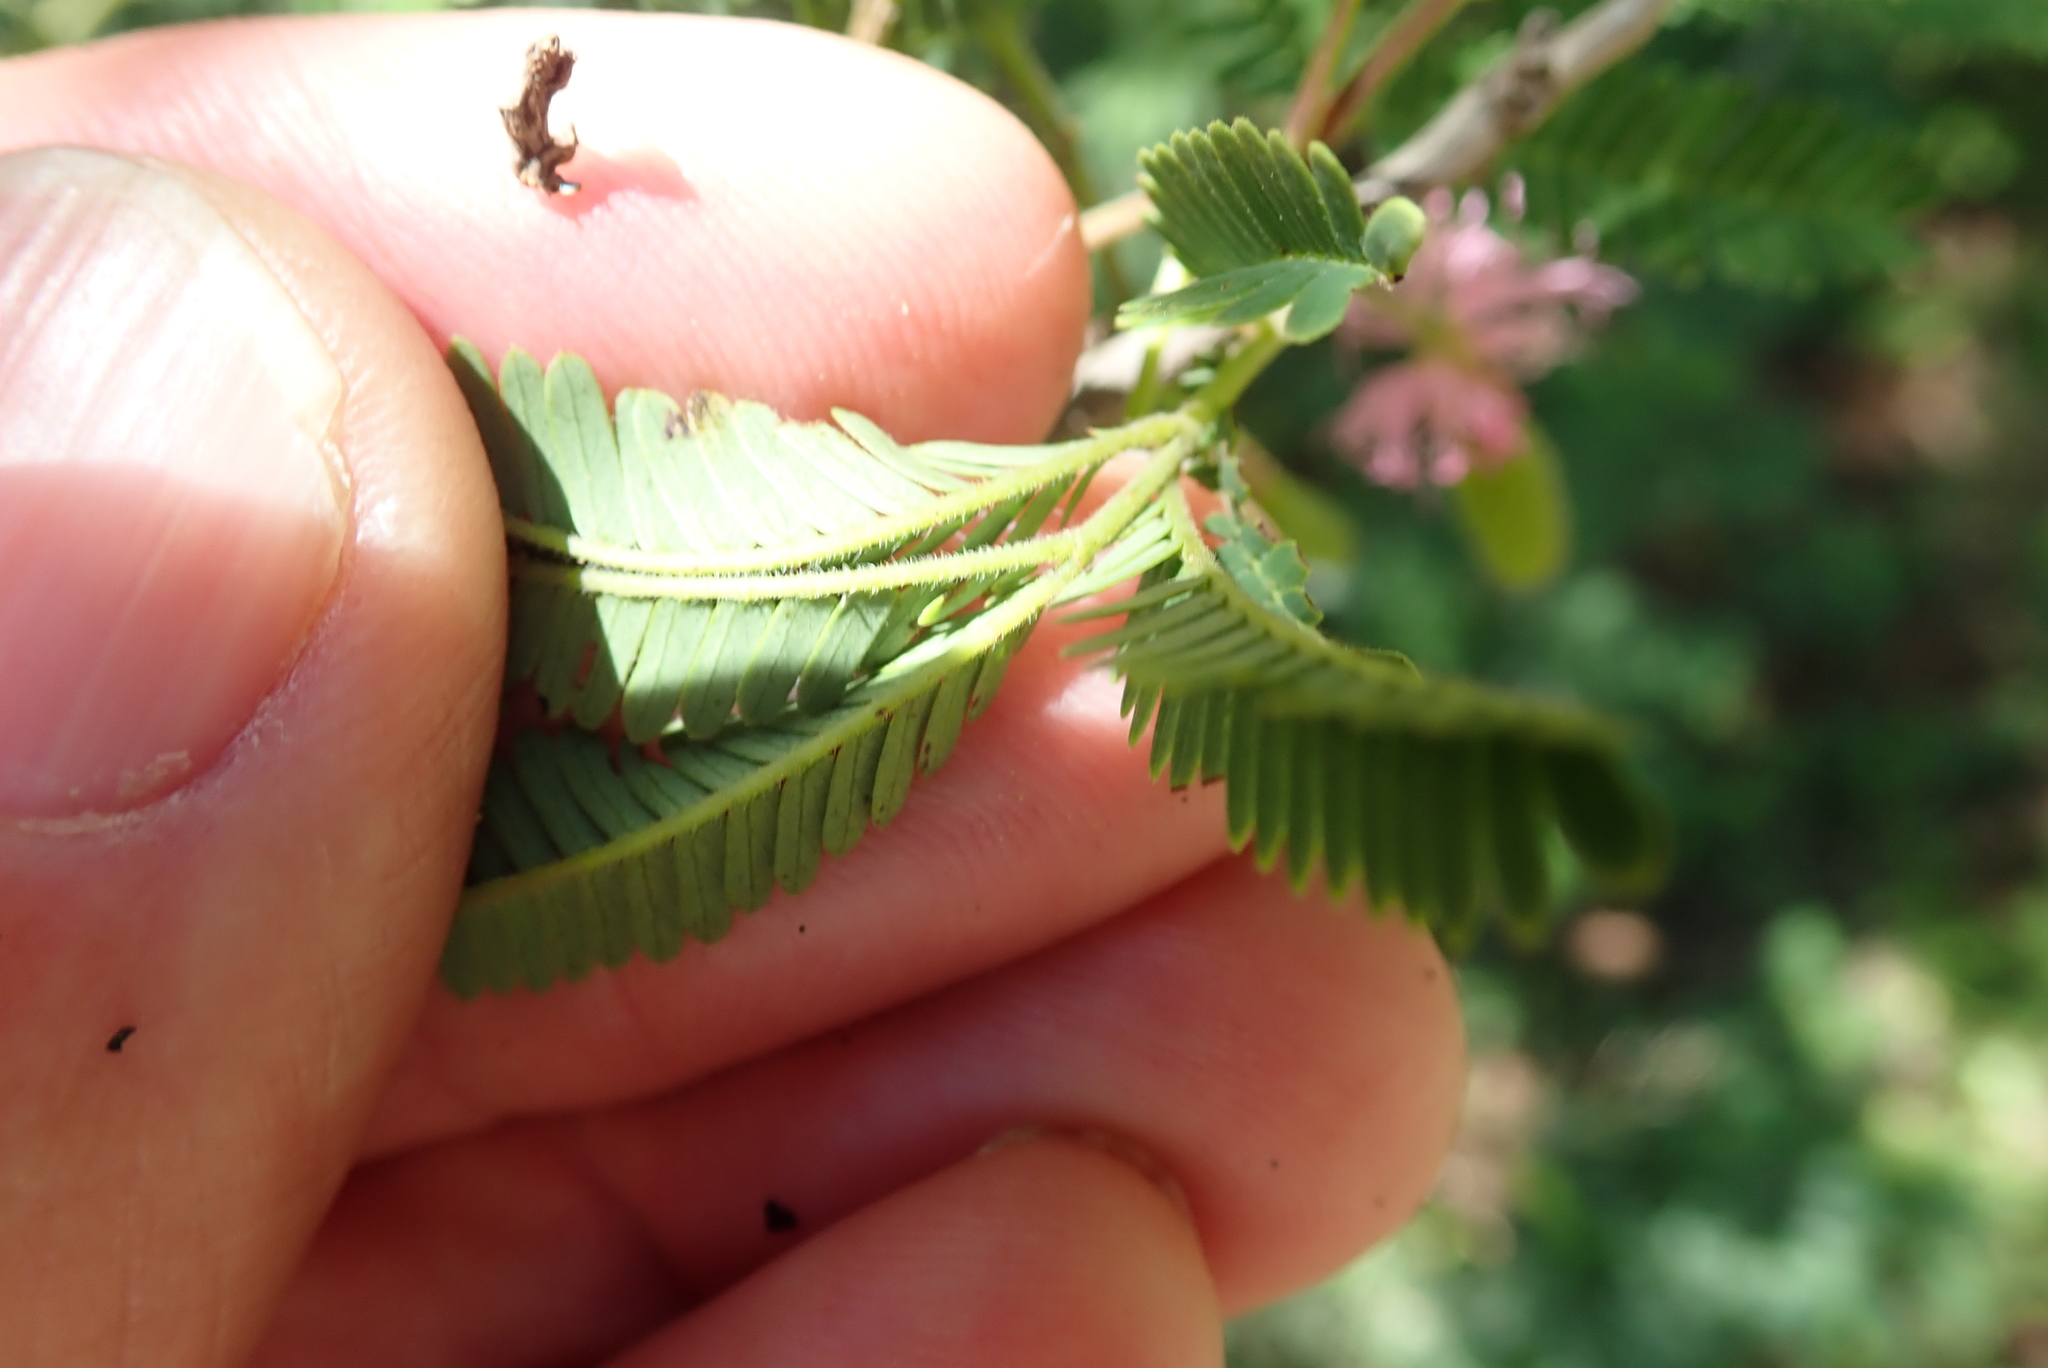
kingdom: Plantae
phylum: Tracheophyta
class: Magnoliopsida
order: Fabales
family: Fabaceae
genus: Dichrostachys
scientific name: Dichrostachys cinerea
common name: Sicklebush
